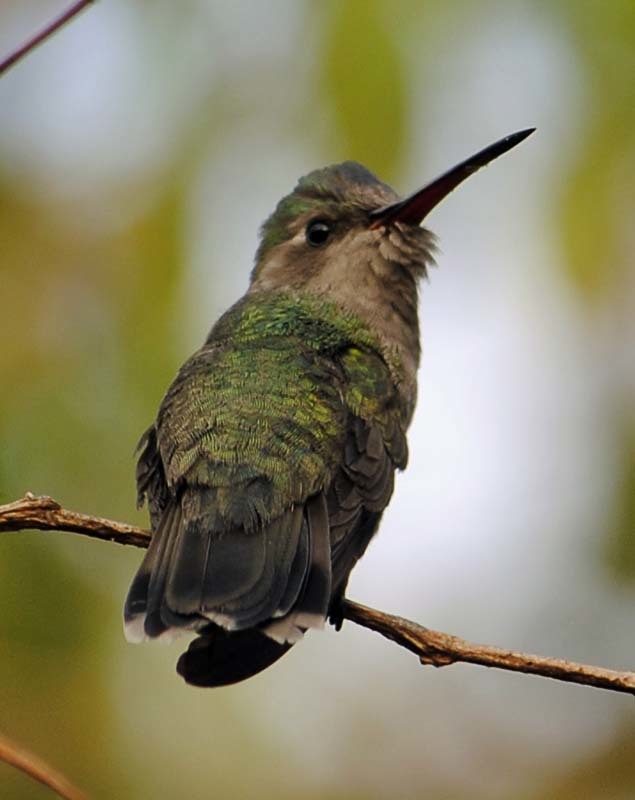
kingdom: Animalia
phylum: Chordata
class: Aves
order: Apodiformes
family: Trochilidae
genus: Cynanthus
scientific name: Cynanthus latirostris
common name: Broad-billed hummingbird
